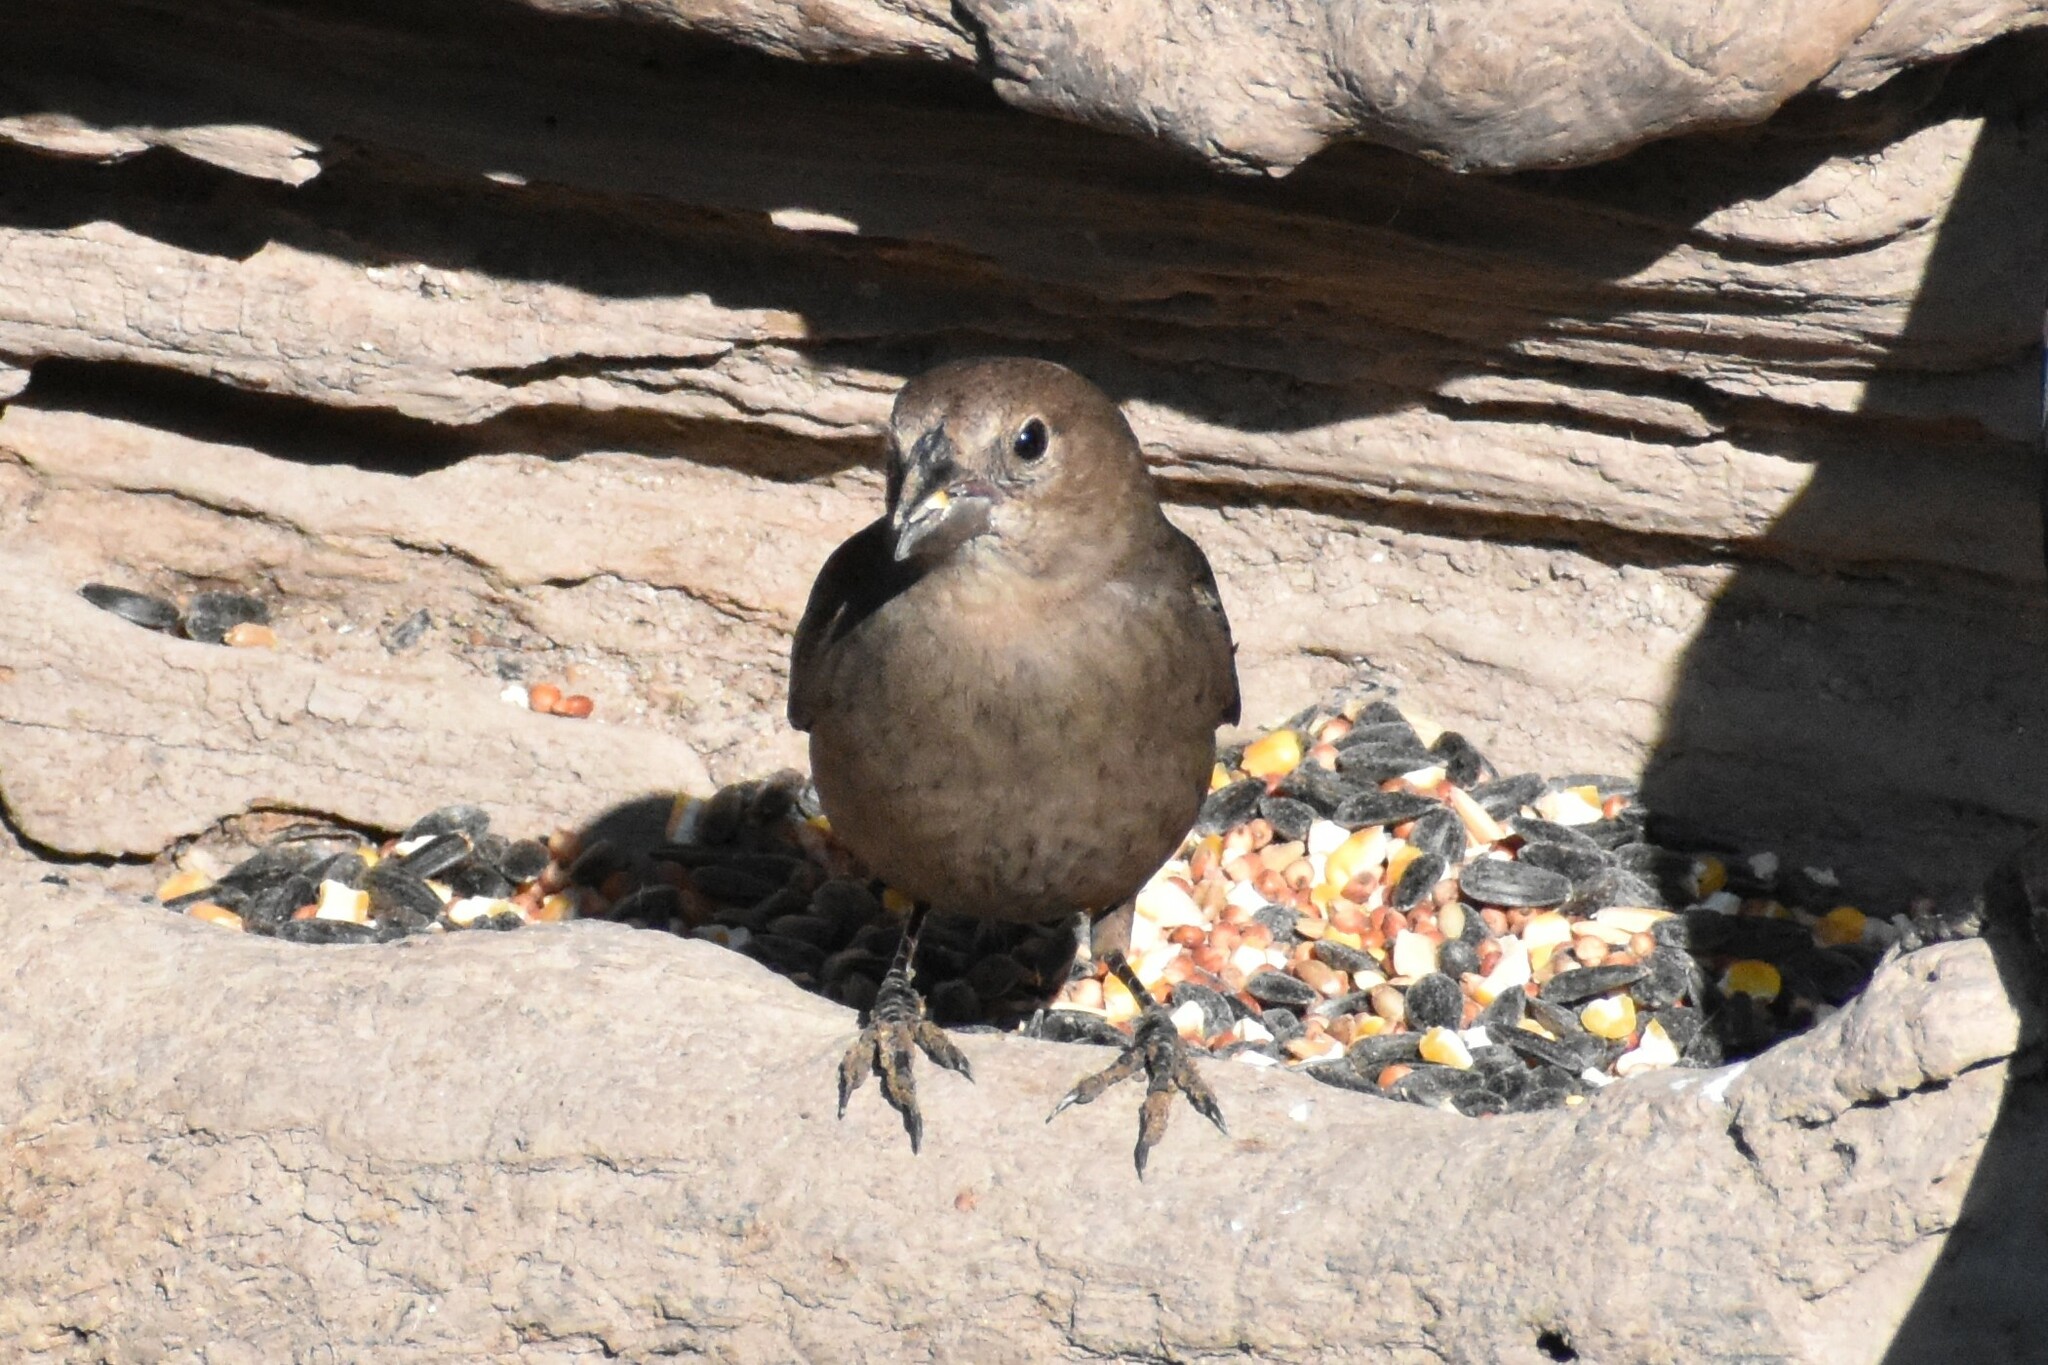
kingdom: Animalia
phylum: Chordata
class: Aves
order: Passeriformes
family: Icteridae
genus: Molothrus
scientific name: Molothrus ater
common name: Brown-headed cowbird
